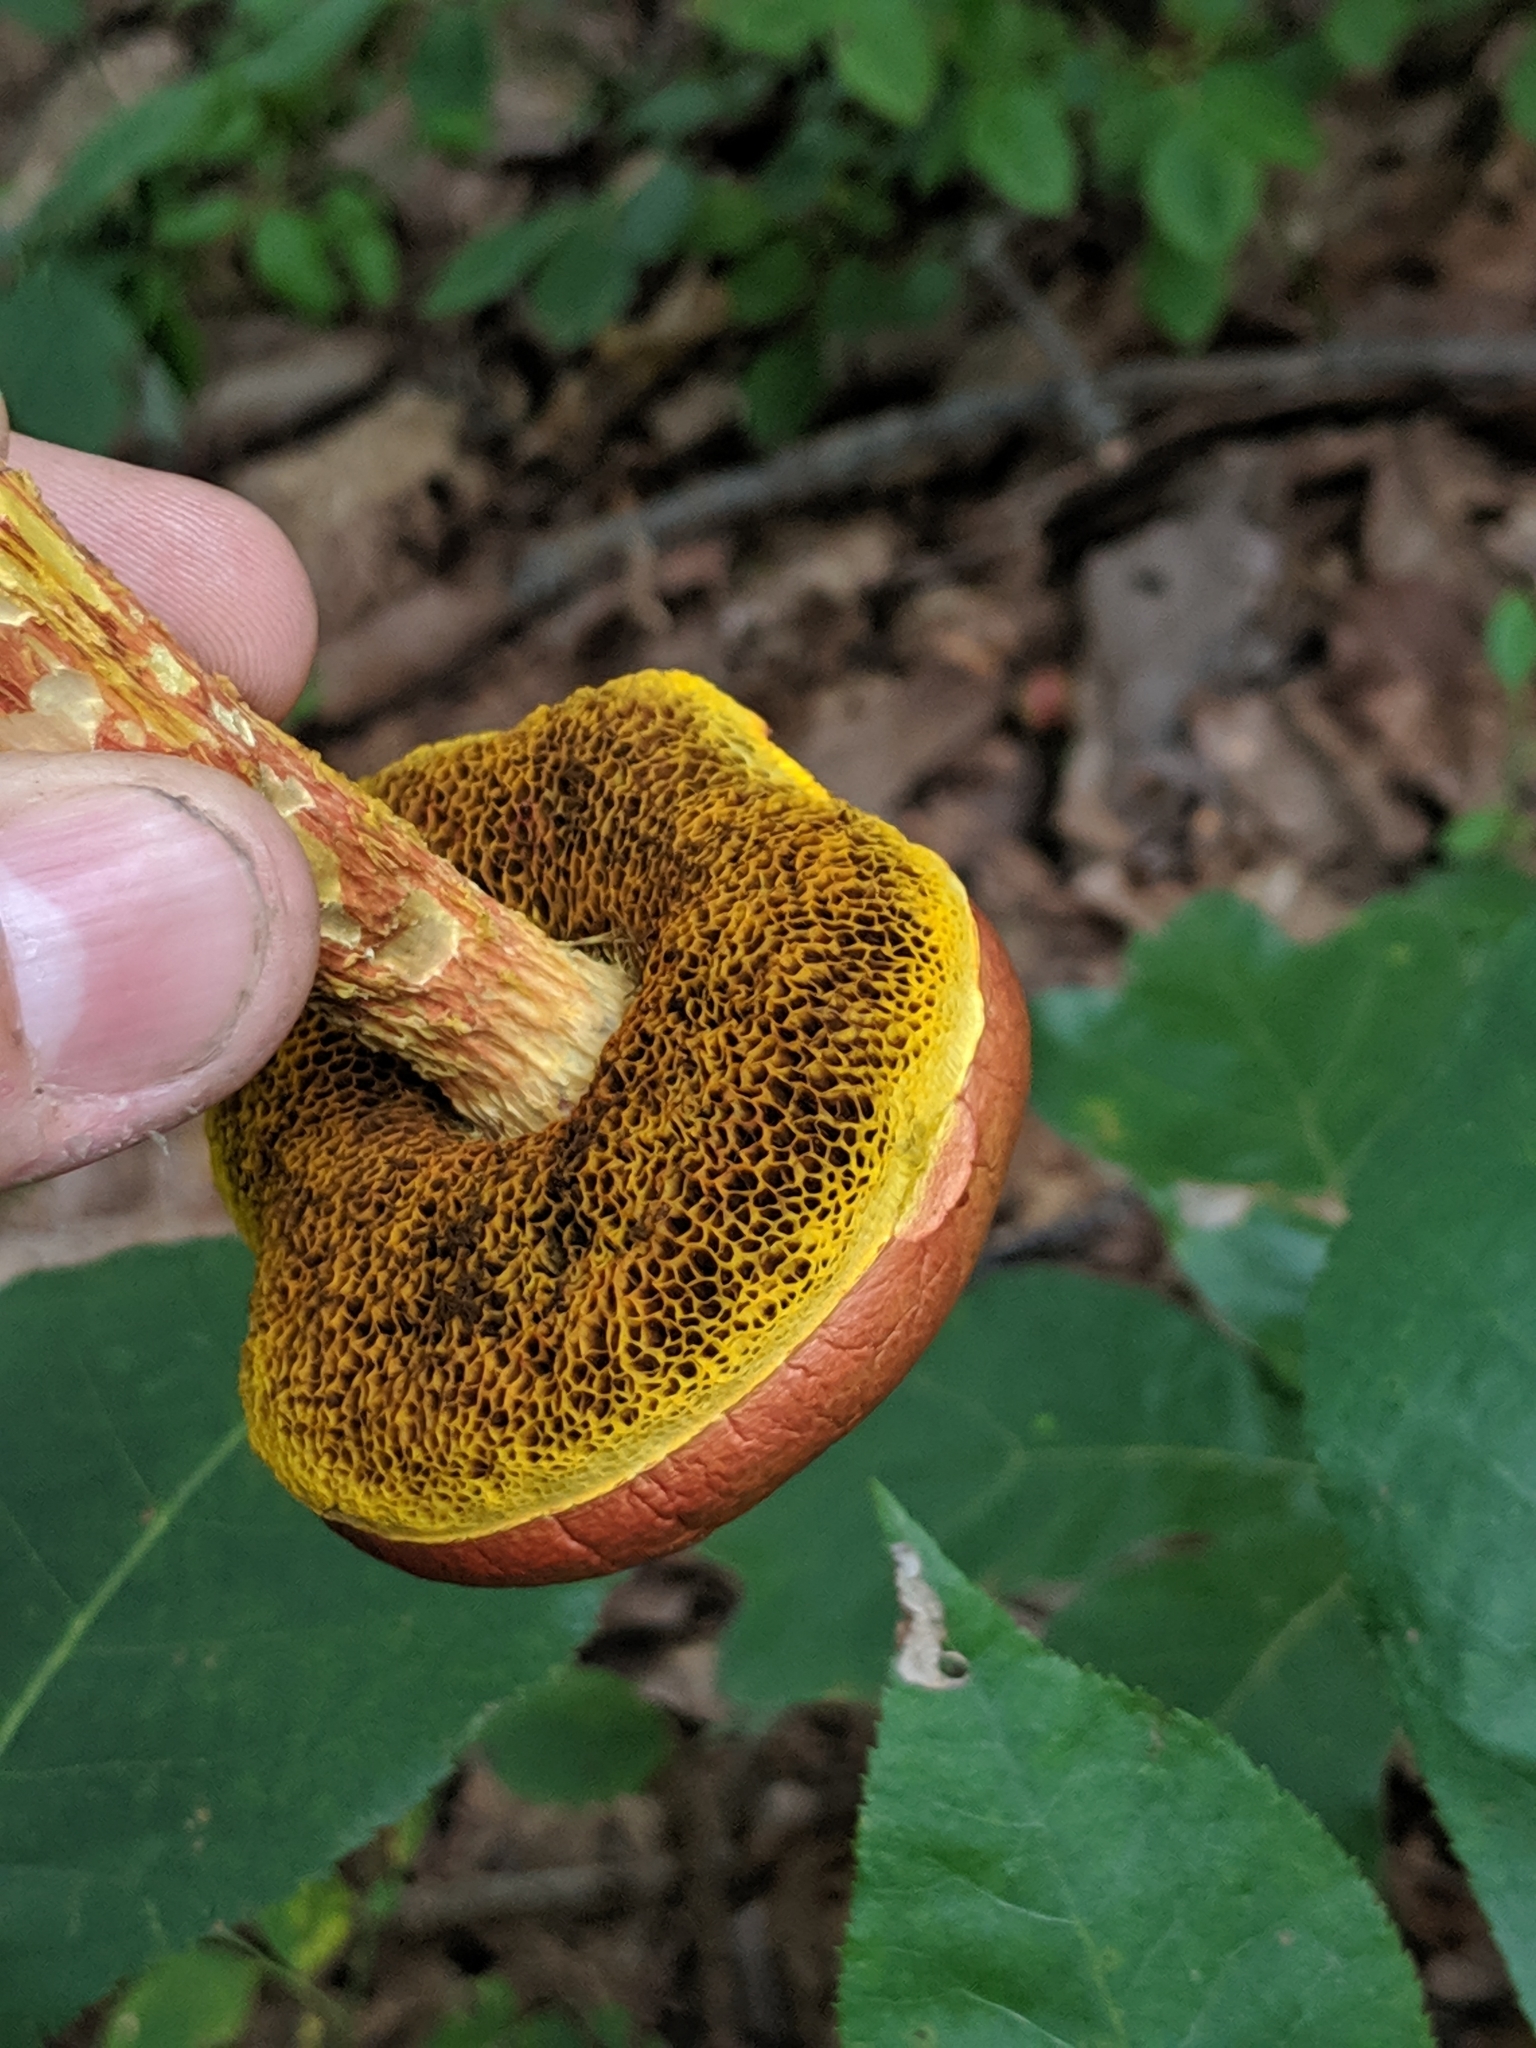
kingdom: Fungi
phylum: Basidiomycota
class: Agaricomycetes
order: Boletales
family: Boletaceae
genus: Aureoboletus
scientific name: Aureoboletus betula
